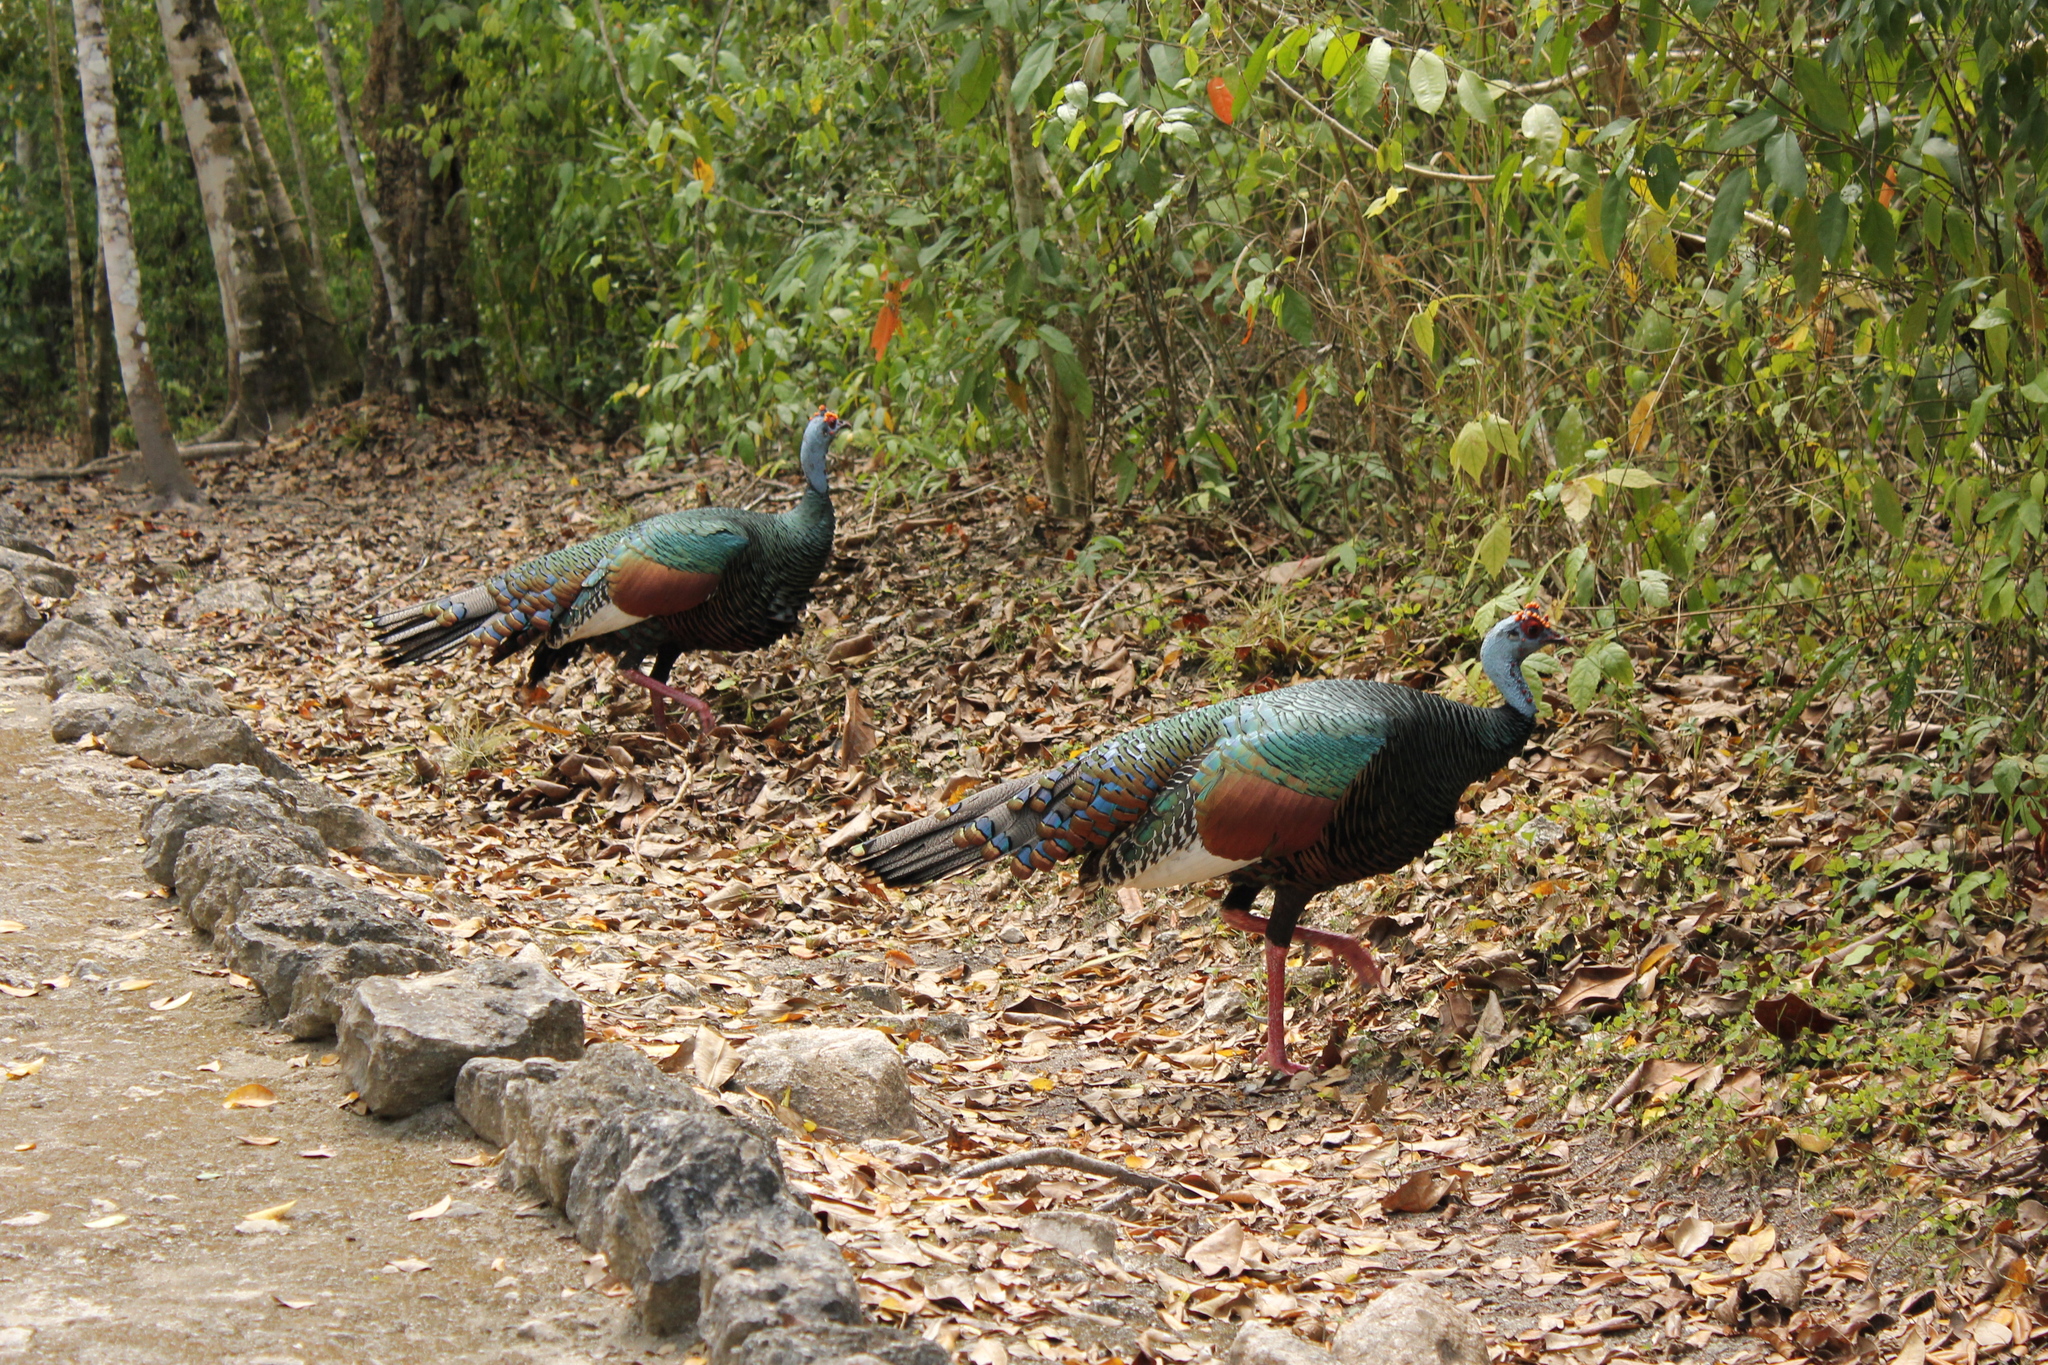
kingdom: Animalia
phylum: Chordata
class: Aves
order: Galliformes
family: Phasianidae
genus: Meleagris
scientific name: Meleagris ocellata
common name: Ocellated turkey
